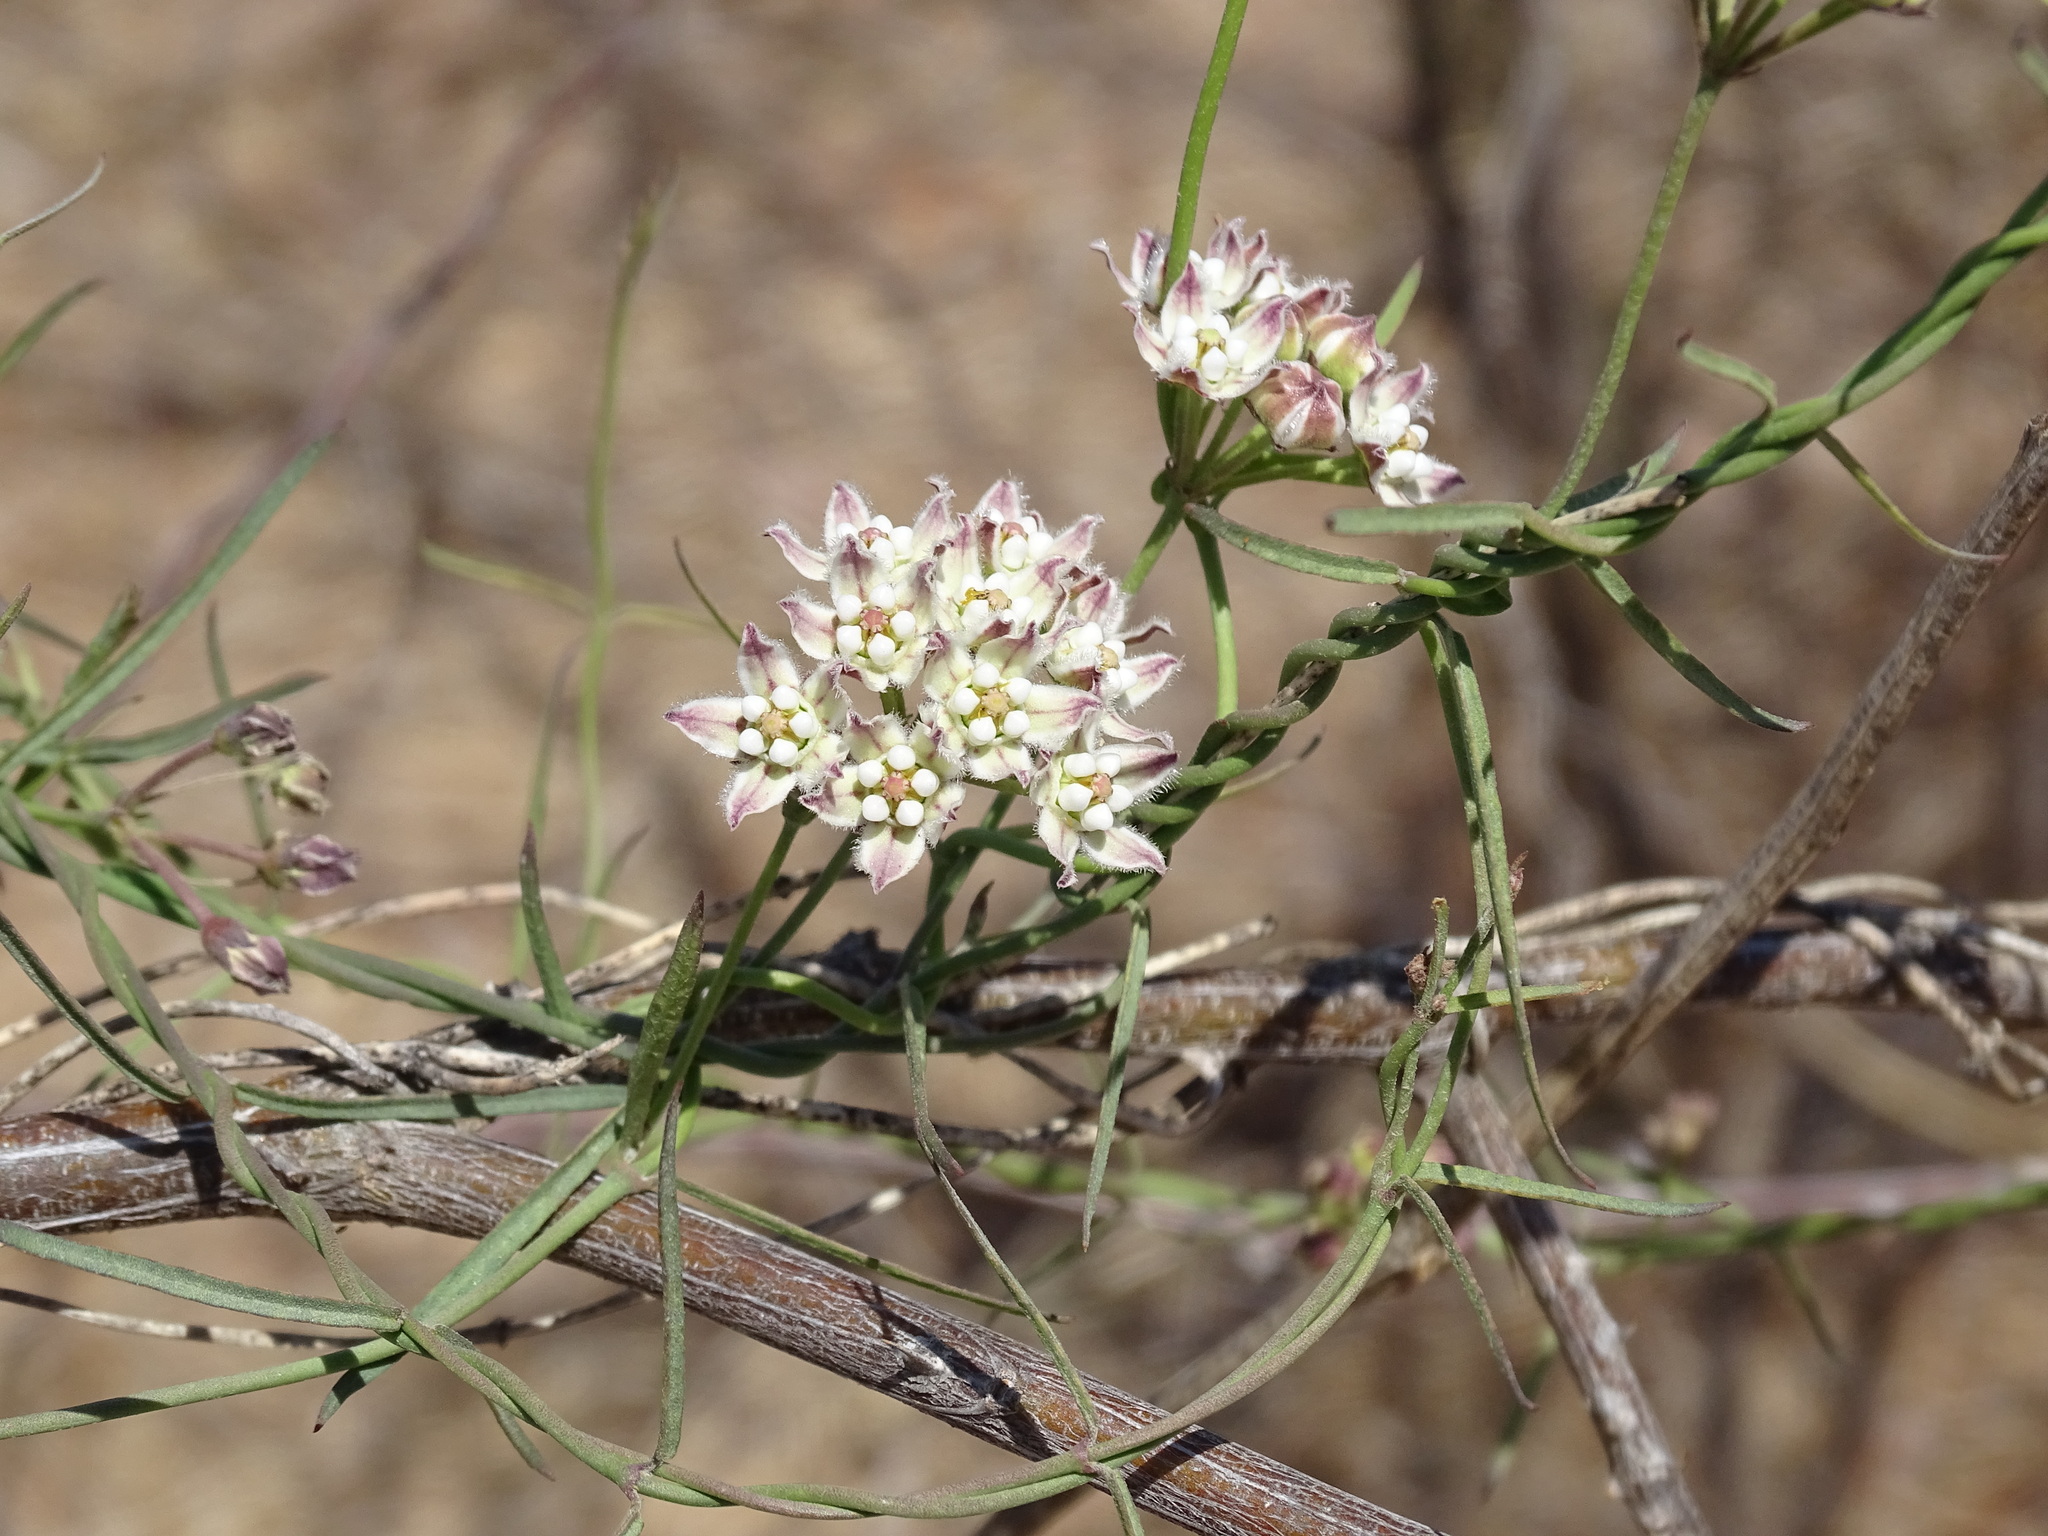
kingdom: Plantae
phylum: Tracheophyta
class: Magnoliopsida
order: Gentianales
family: Apocynaceae
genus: Funastrum
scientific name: Funastrum heterophyllum
